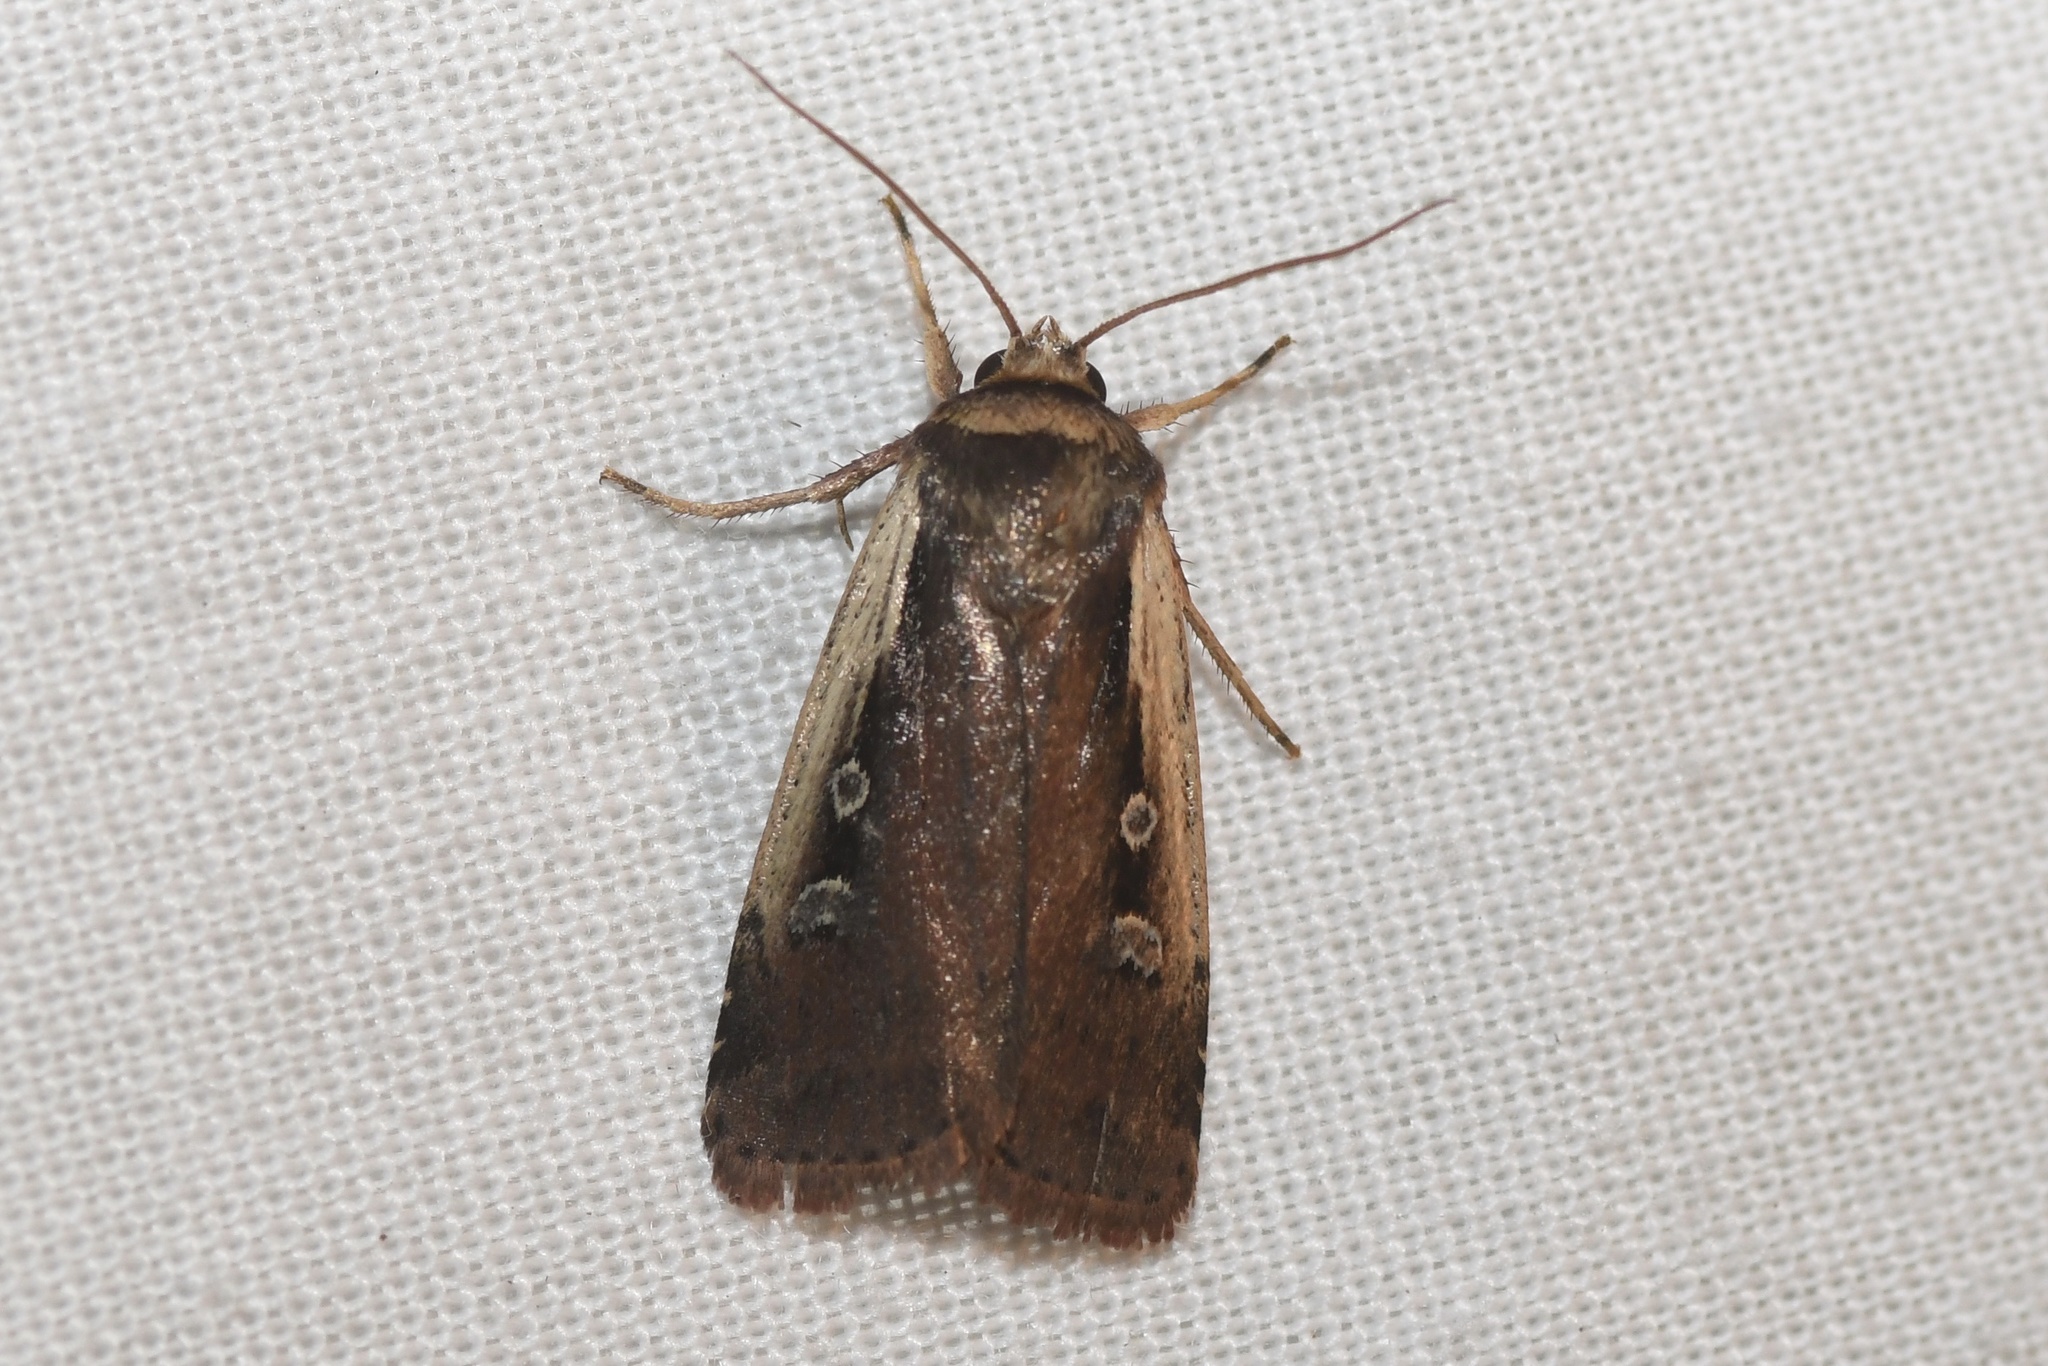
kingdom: Animalia
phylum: Arthropoda
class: Insecta
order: Lepidoptera
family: Noctuidae
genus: Ochropleura
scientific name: Ochropleura implecta
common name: Flame-shouldered dart
